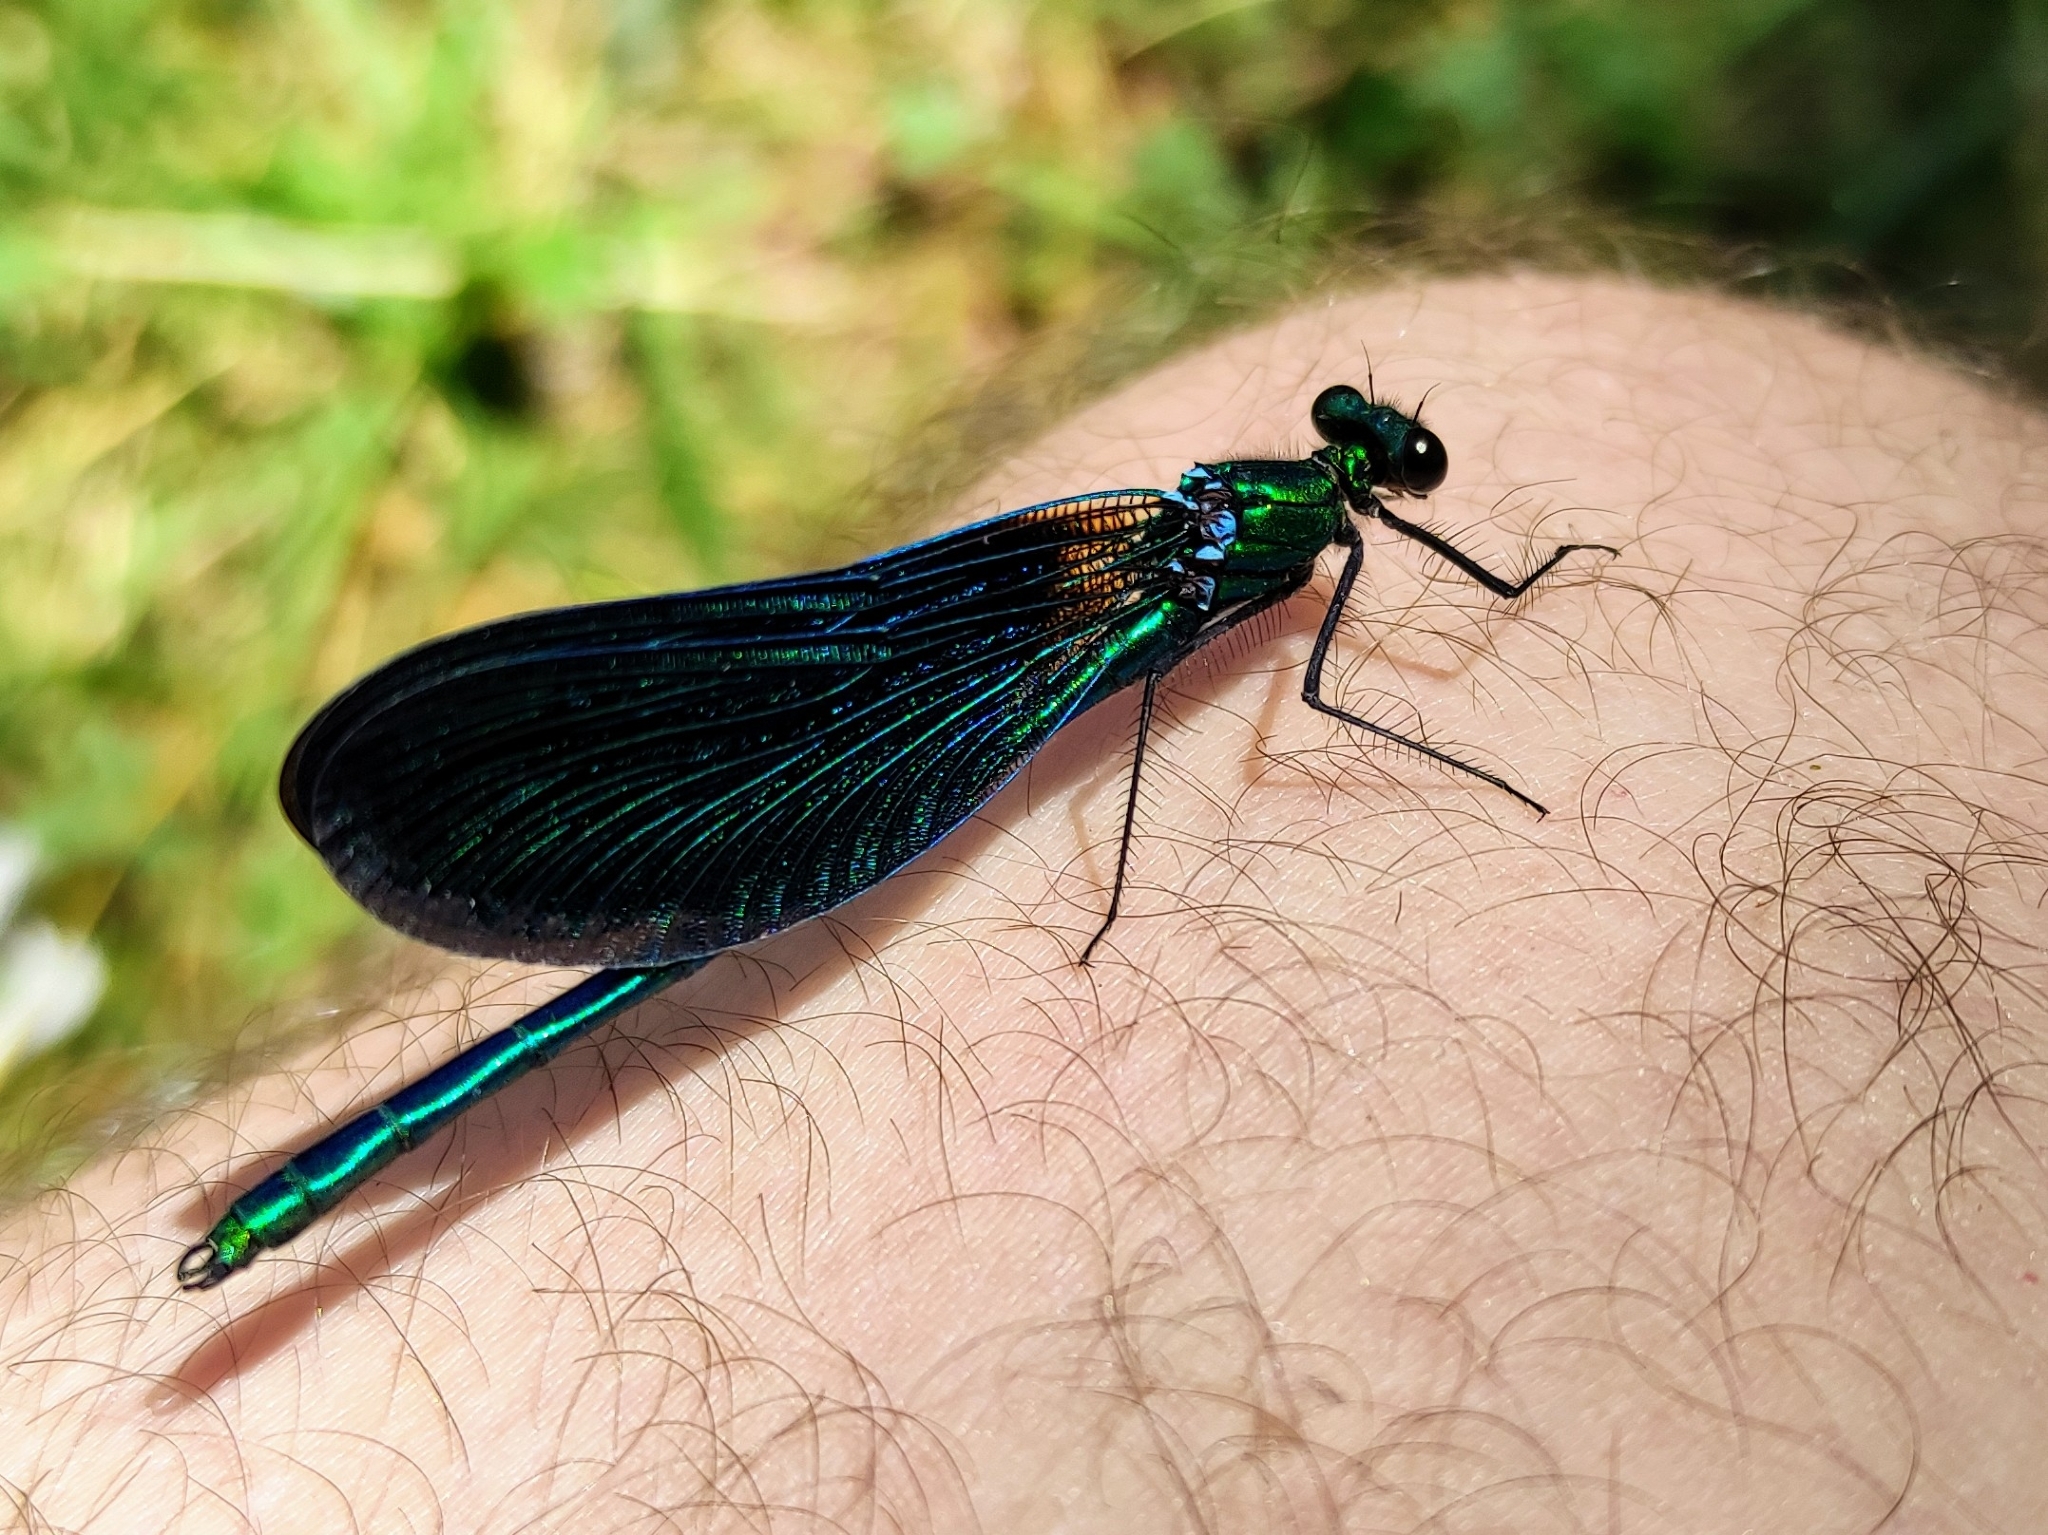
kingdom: Animalia
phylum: Arthropoda
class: Insecta
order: Odonata
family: Calopterygidae
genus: Calopteryx
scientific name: Calopteryx virgo
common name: Beautiful demoiselle
